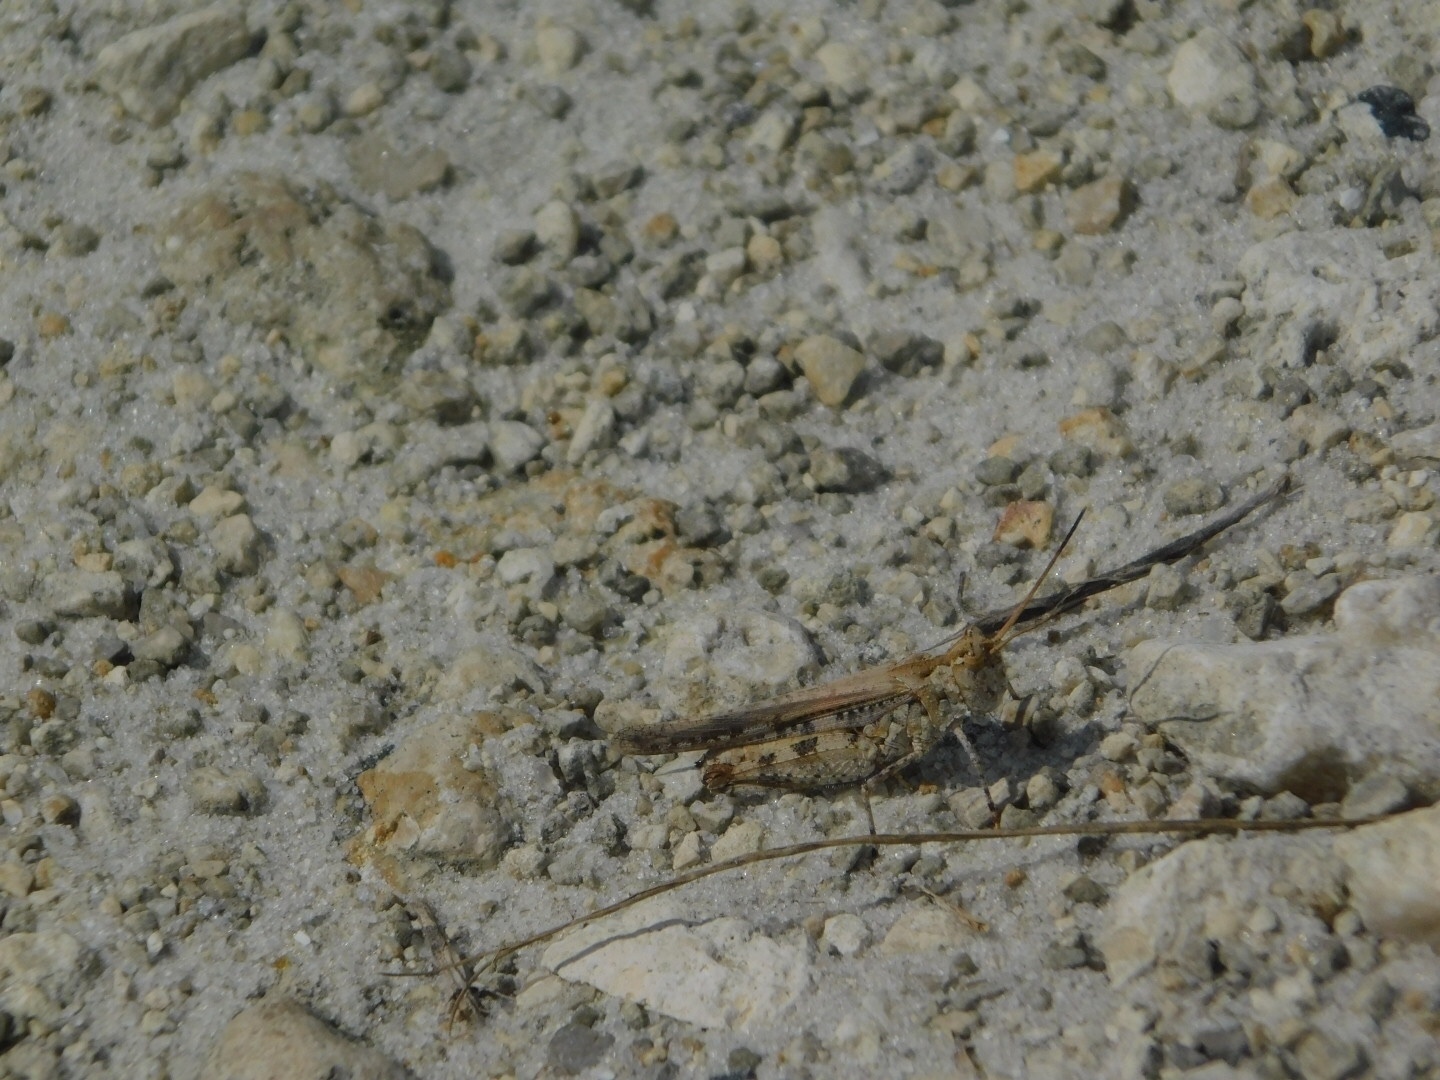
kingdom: Animalia
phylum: Arthropoda
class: Insecta
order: Orthoptera
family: Acrididae
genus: Psinidia
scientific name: Psinidia fenestralis
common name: Long-horned locust
